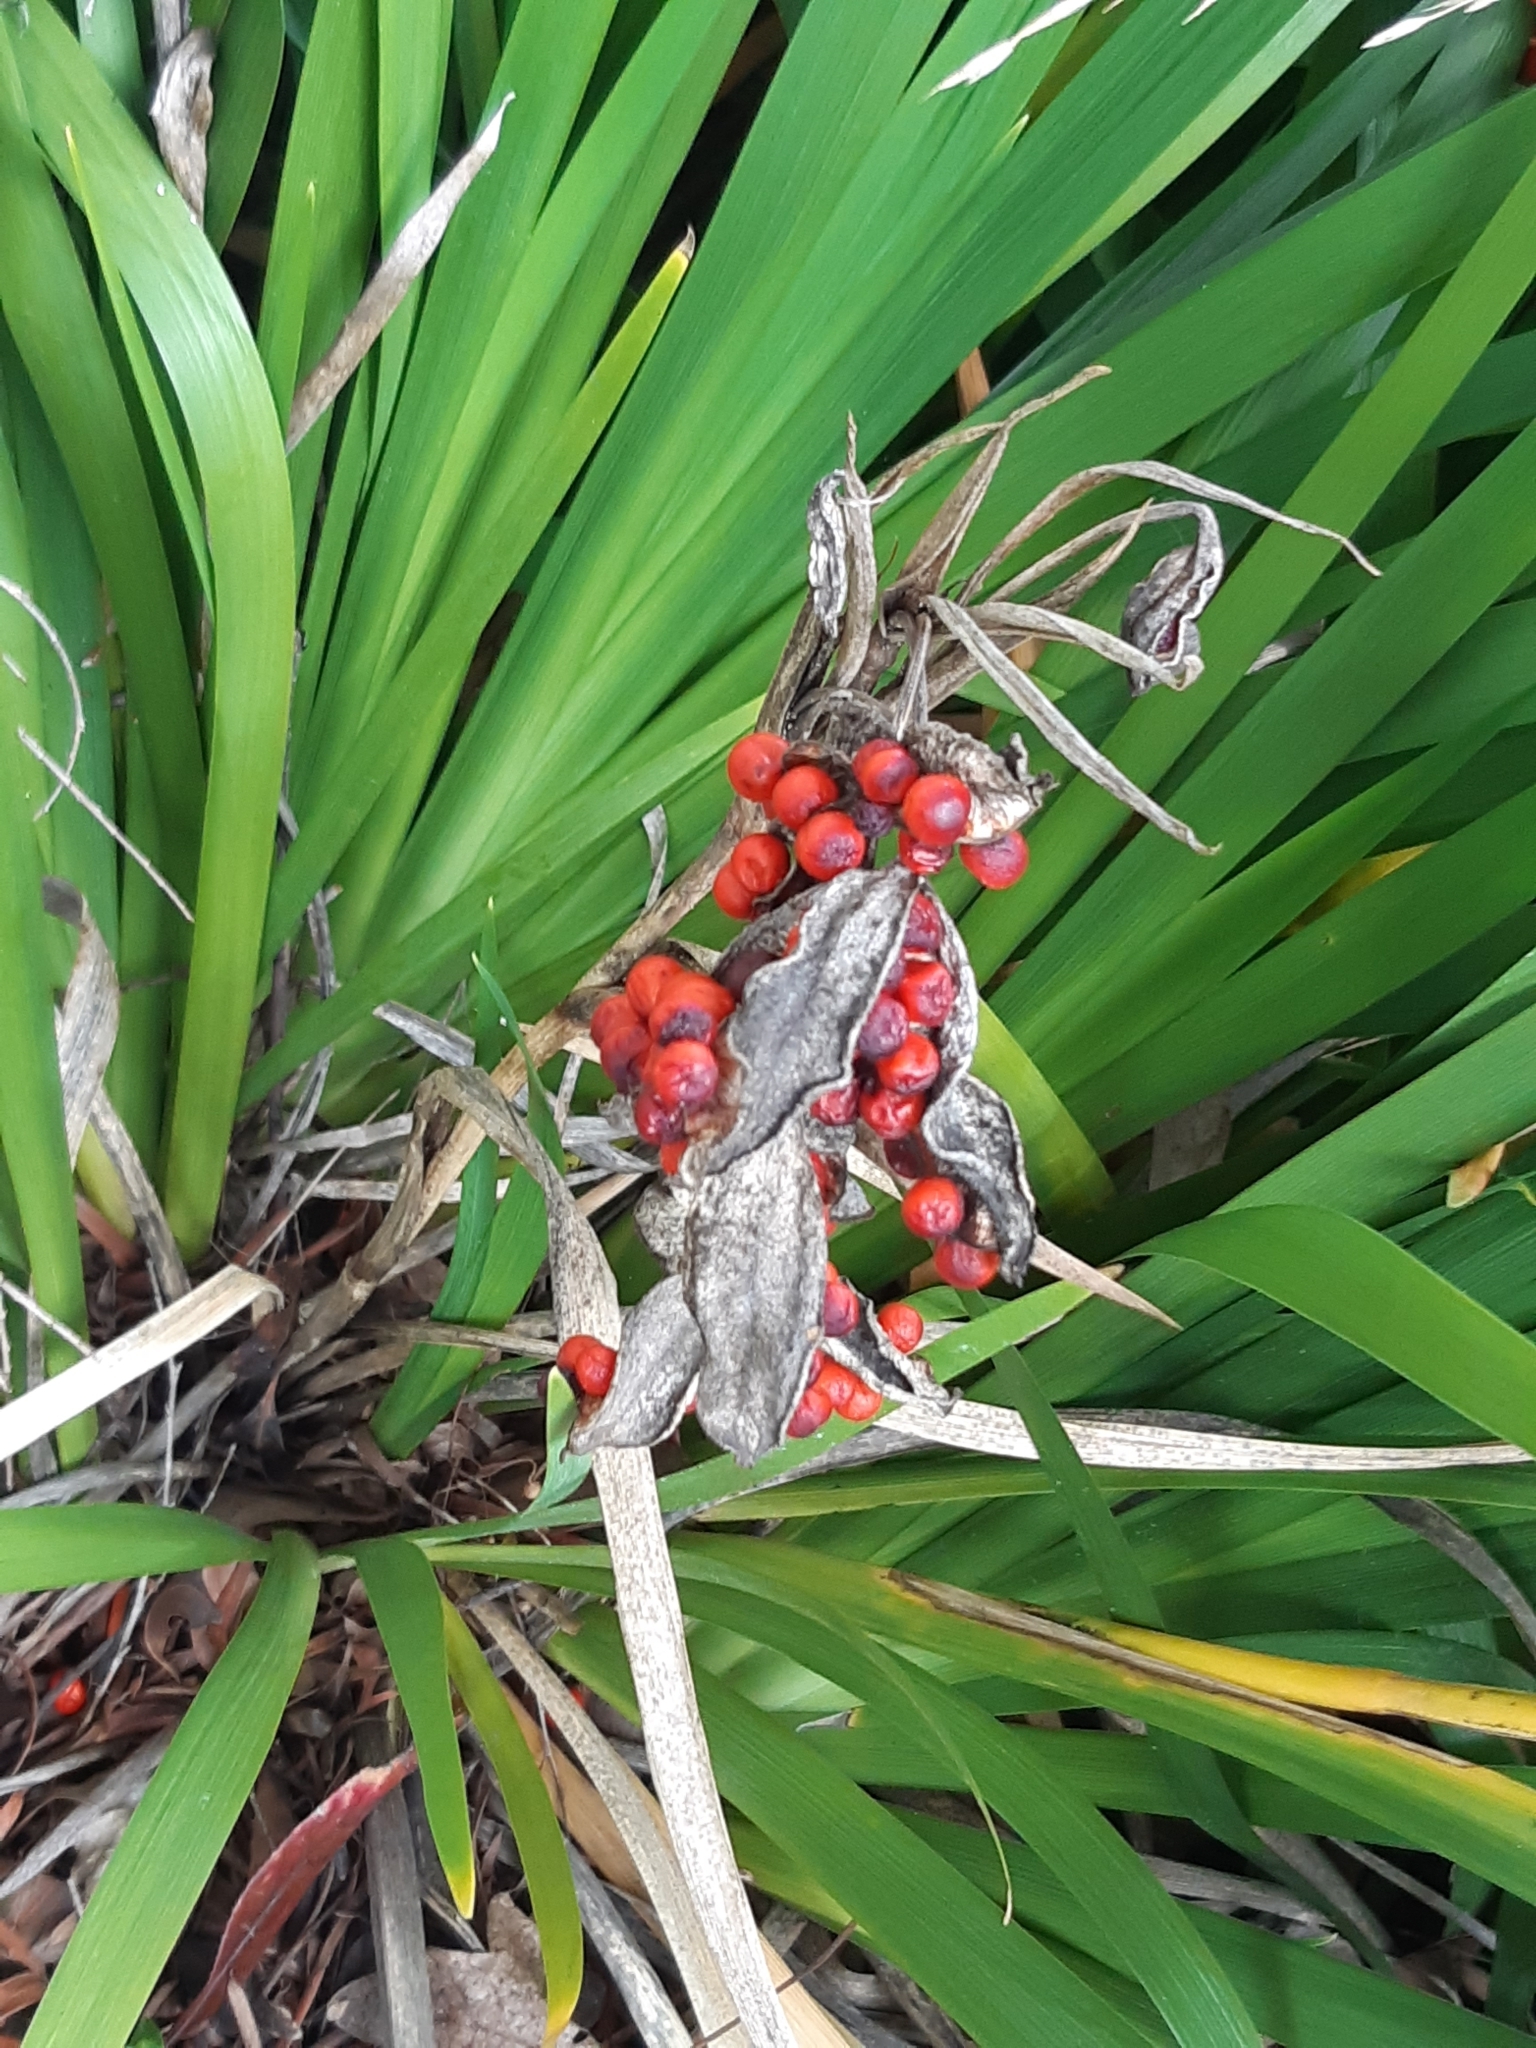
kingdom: Plantae
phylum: Tracheophyta
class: Liliopsida
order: Asparagales
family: Iridaceae
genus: Iris
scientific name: Iris foetidissima
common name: Stinking iris
